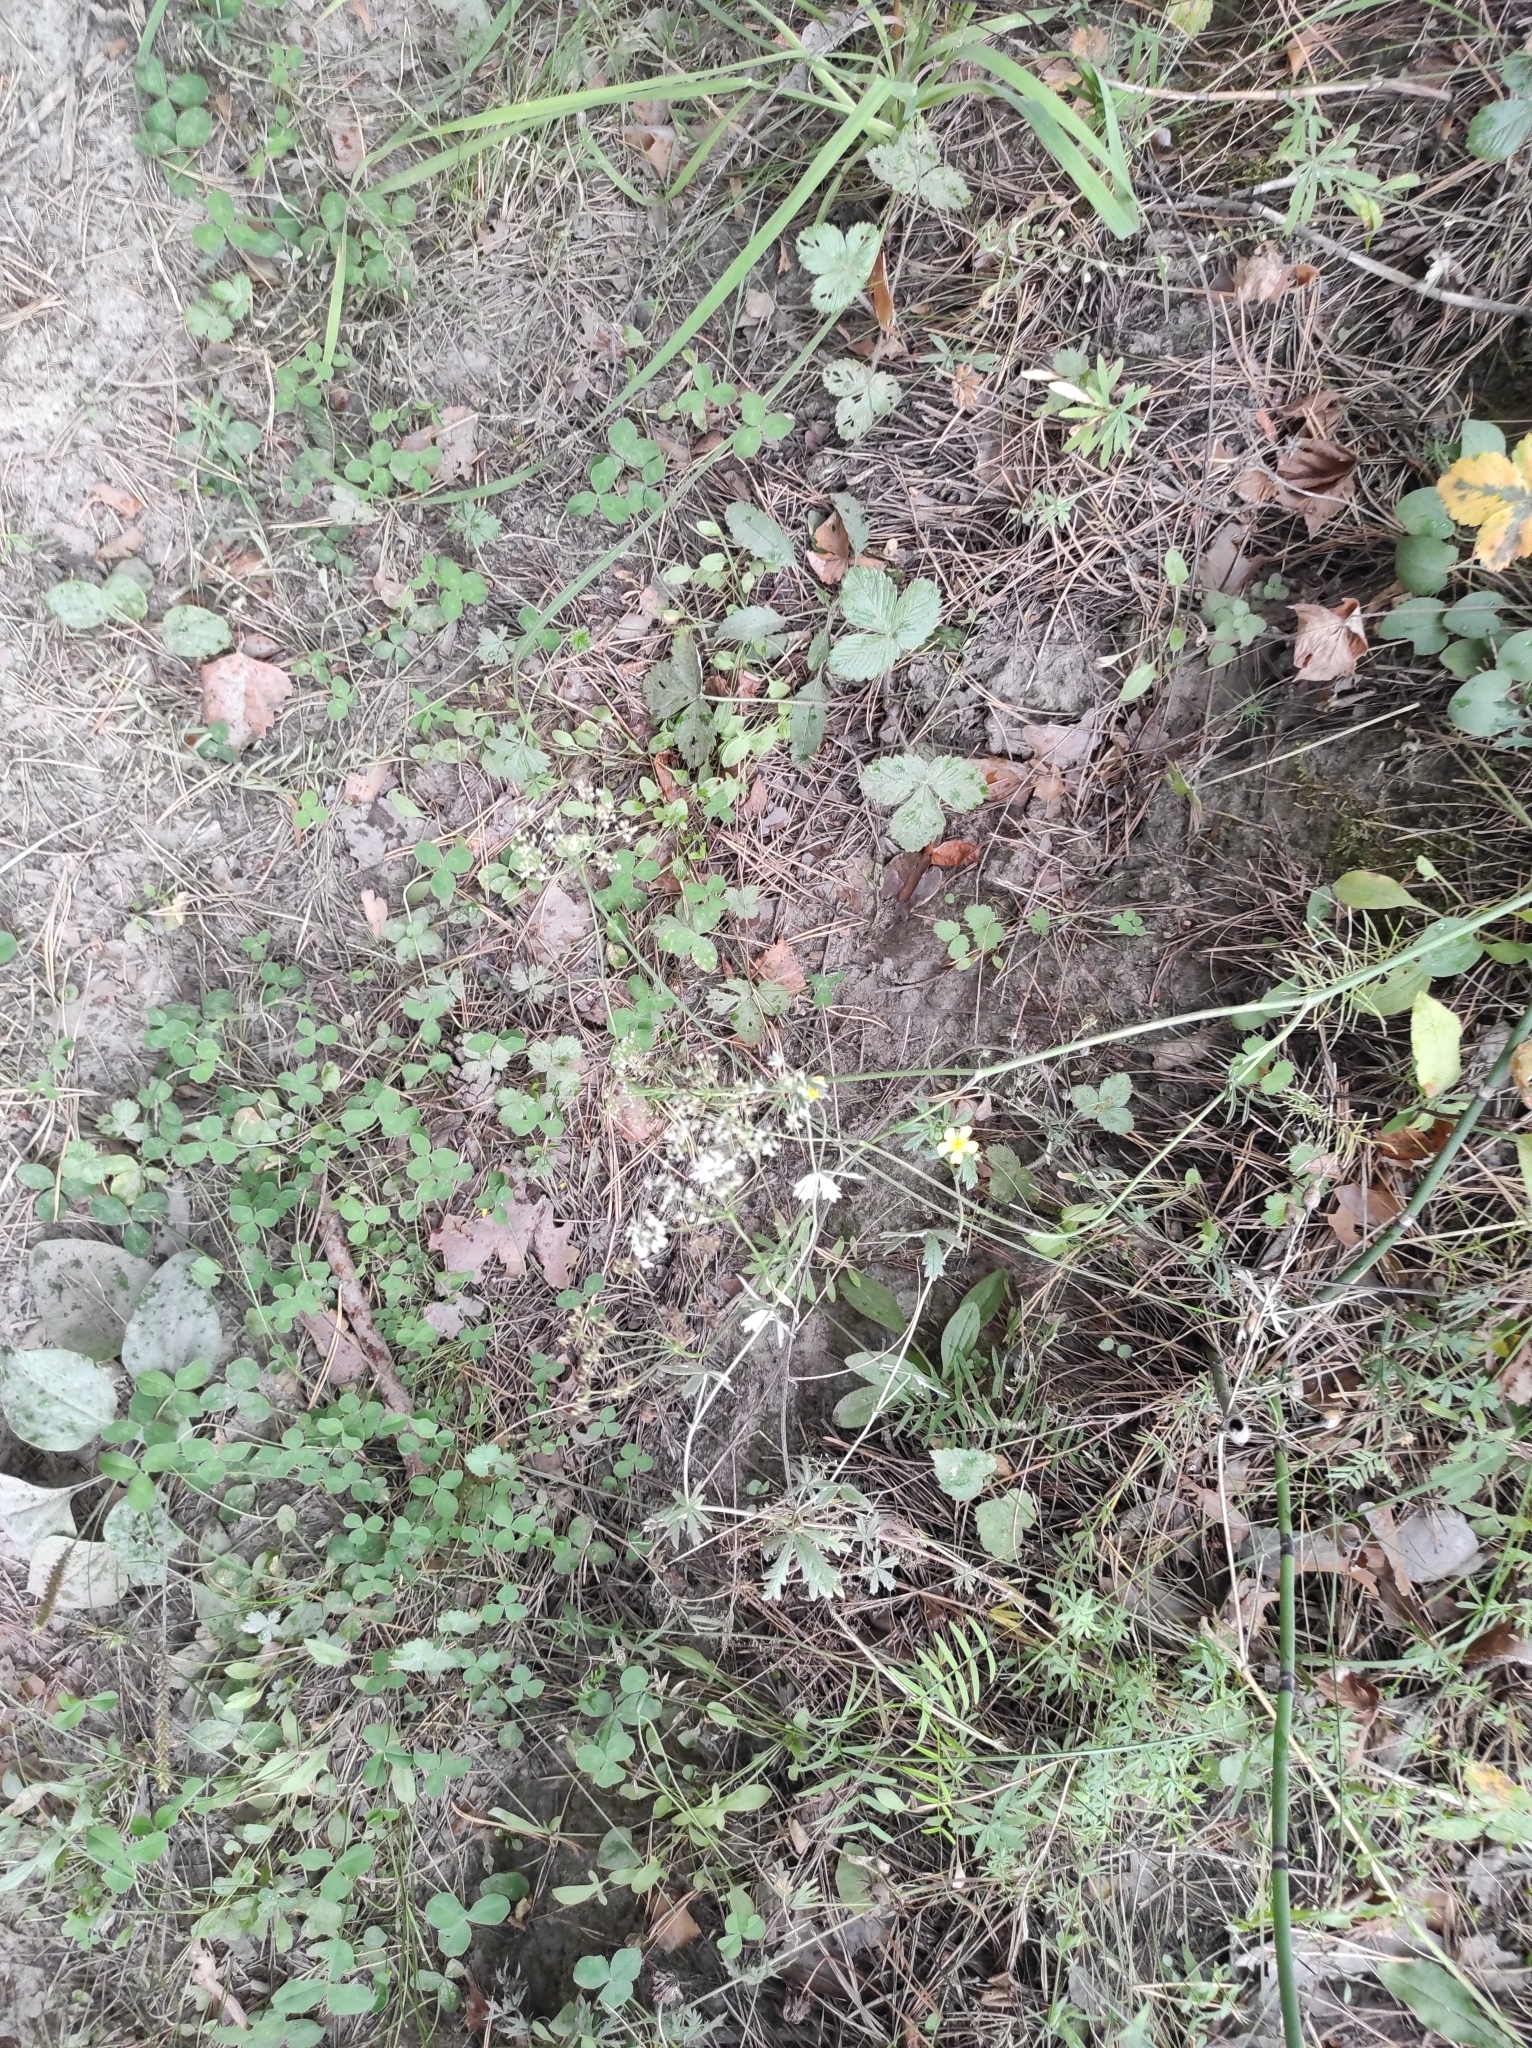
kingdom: Plantae
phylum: Tracheophyta
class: Magnoliopsida
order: Rosales
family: Rosaceae
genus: Fragaria
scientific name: Fragaria vesca
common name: Wild strawberry
